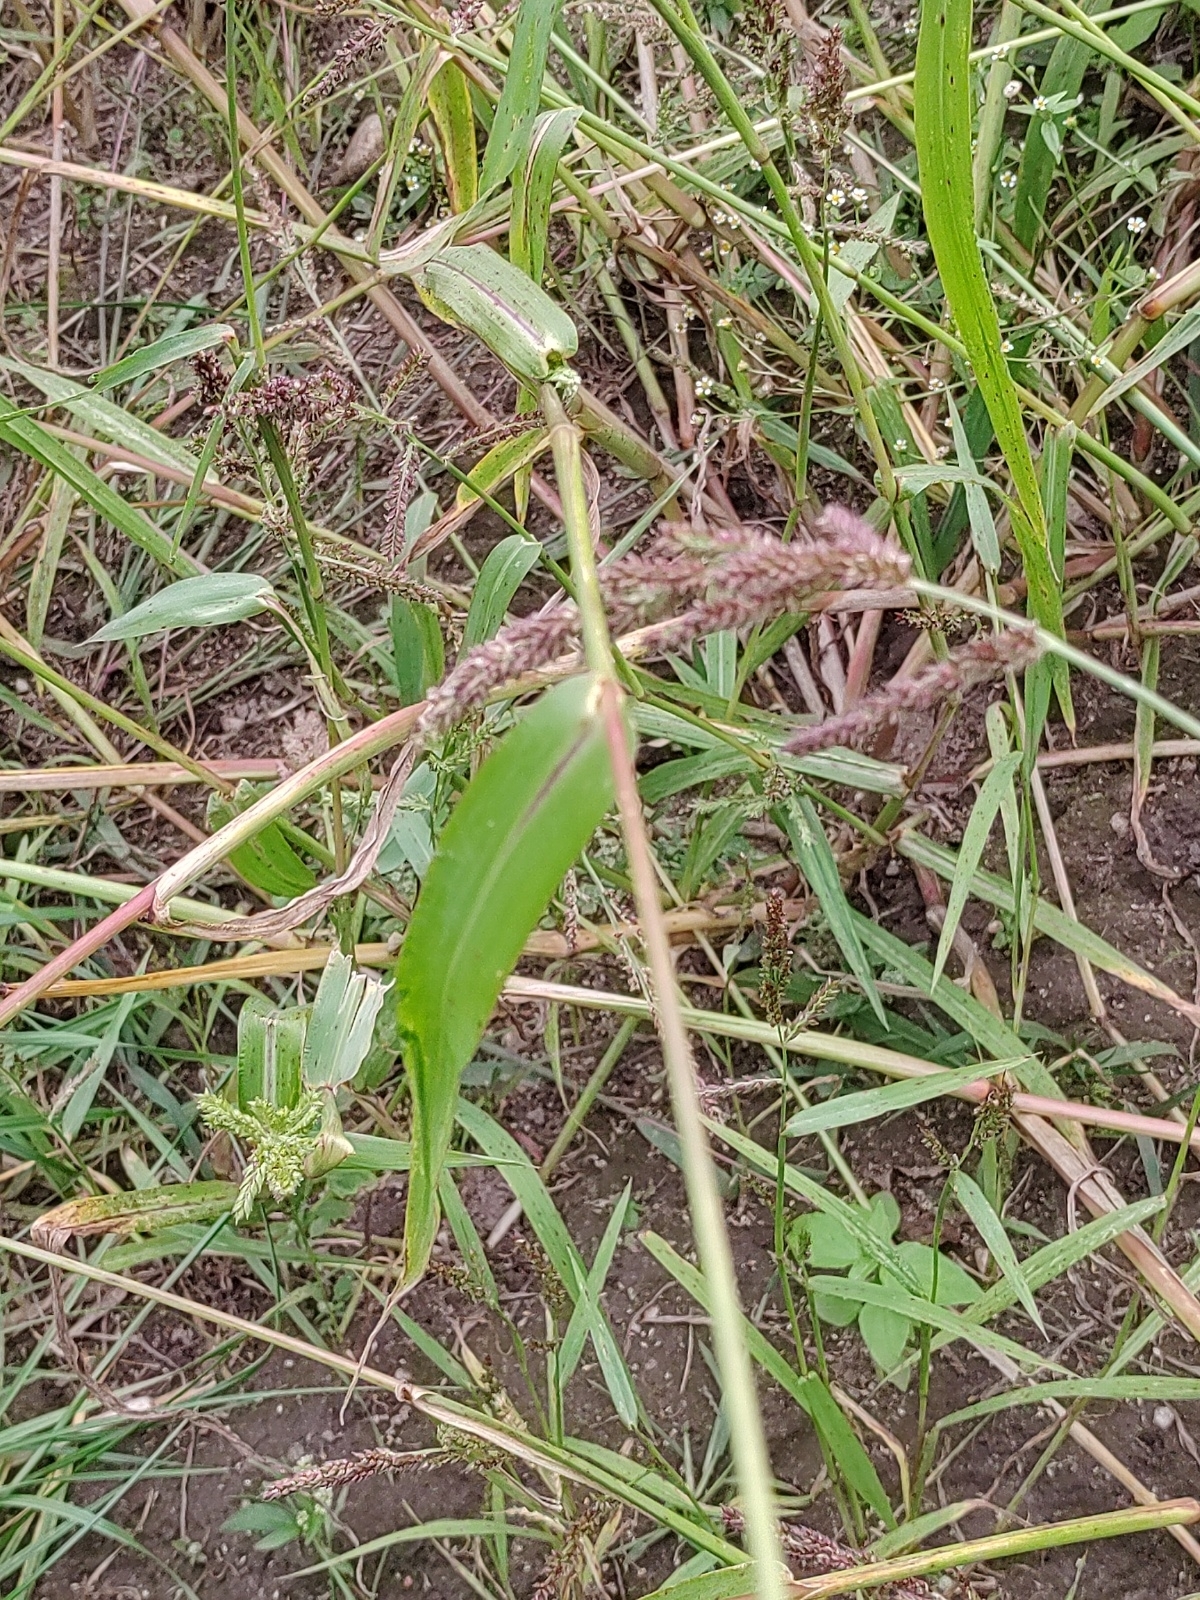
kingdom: Plantae
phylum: Tracheophyta
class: Liliopsida
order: Poales
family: Poaceae
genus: Echinochloa
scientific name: Echinochloa crus-galli
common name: Cockspur
